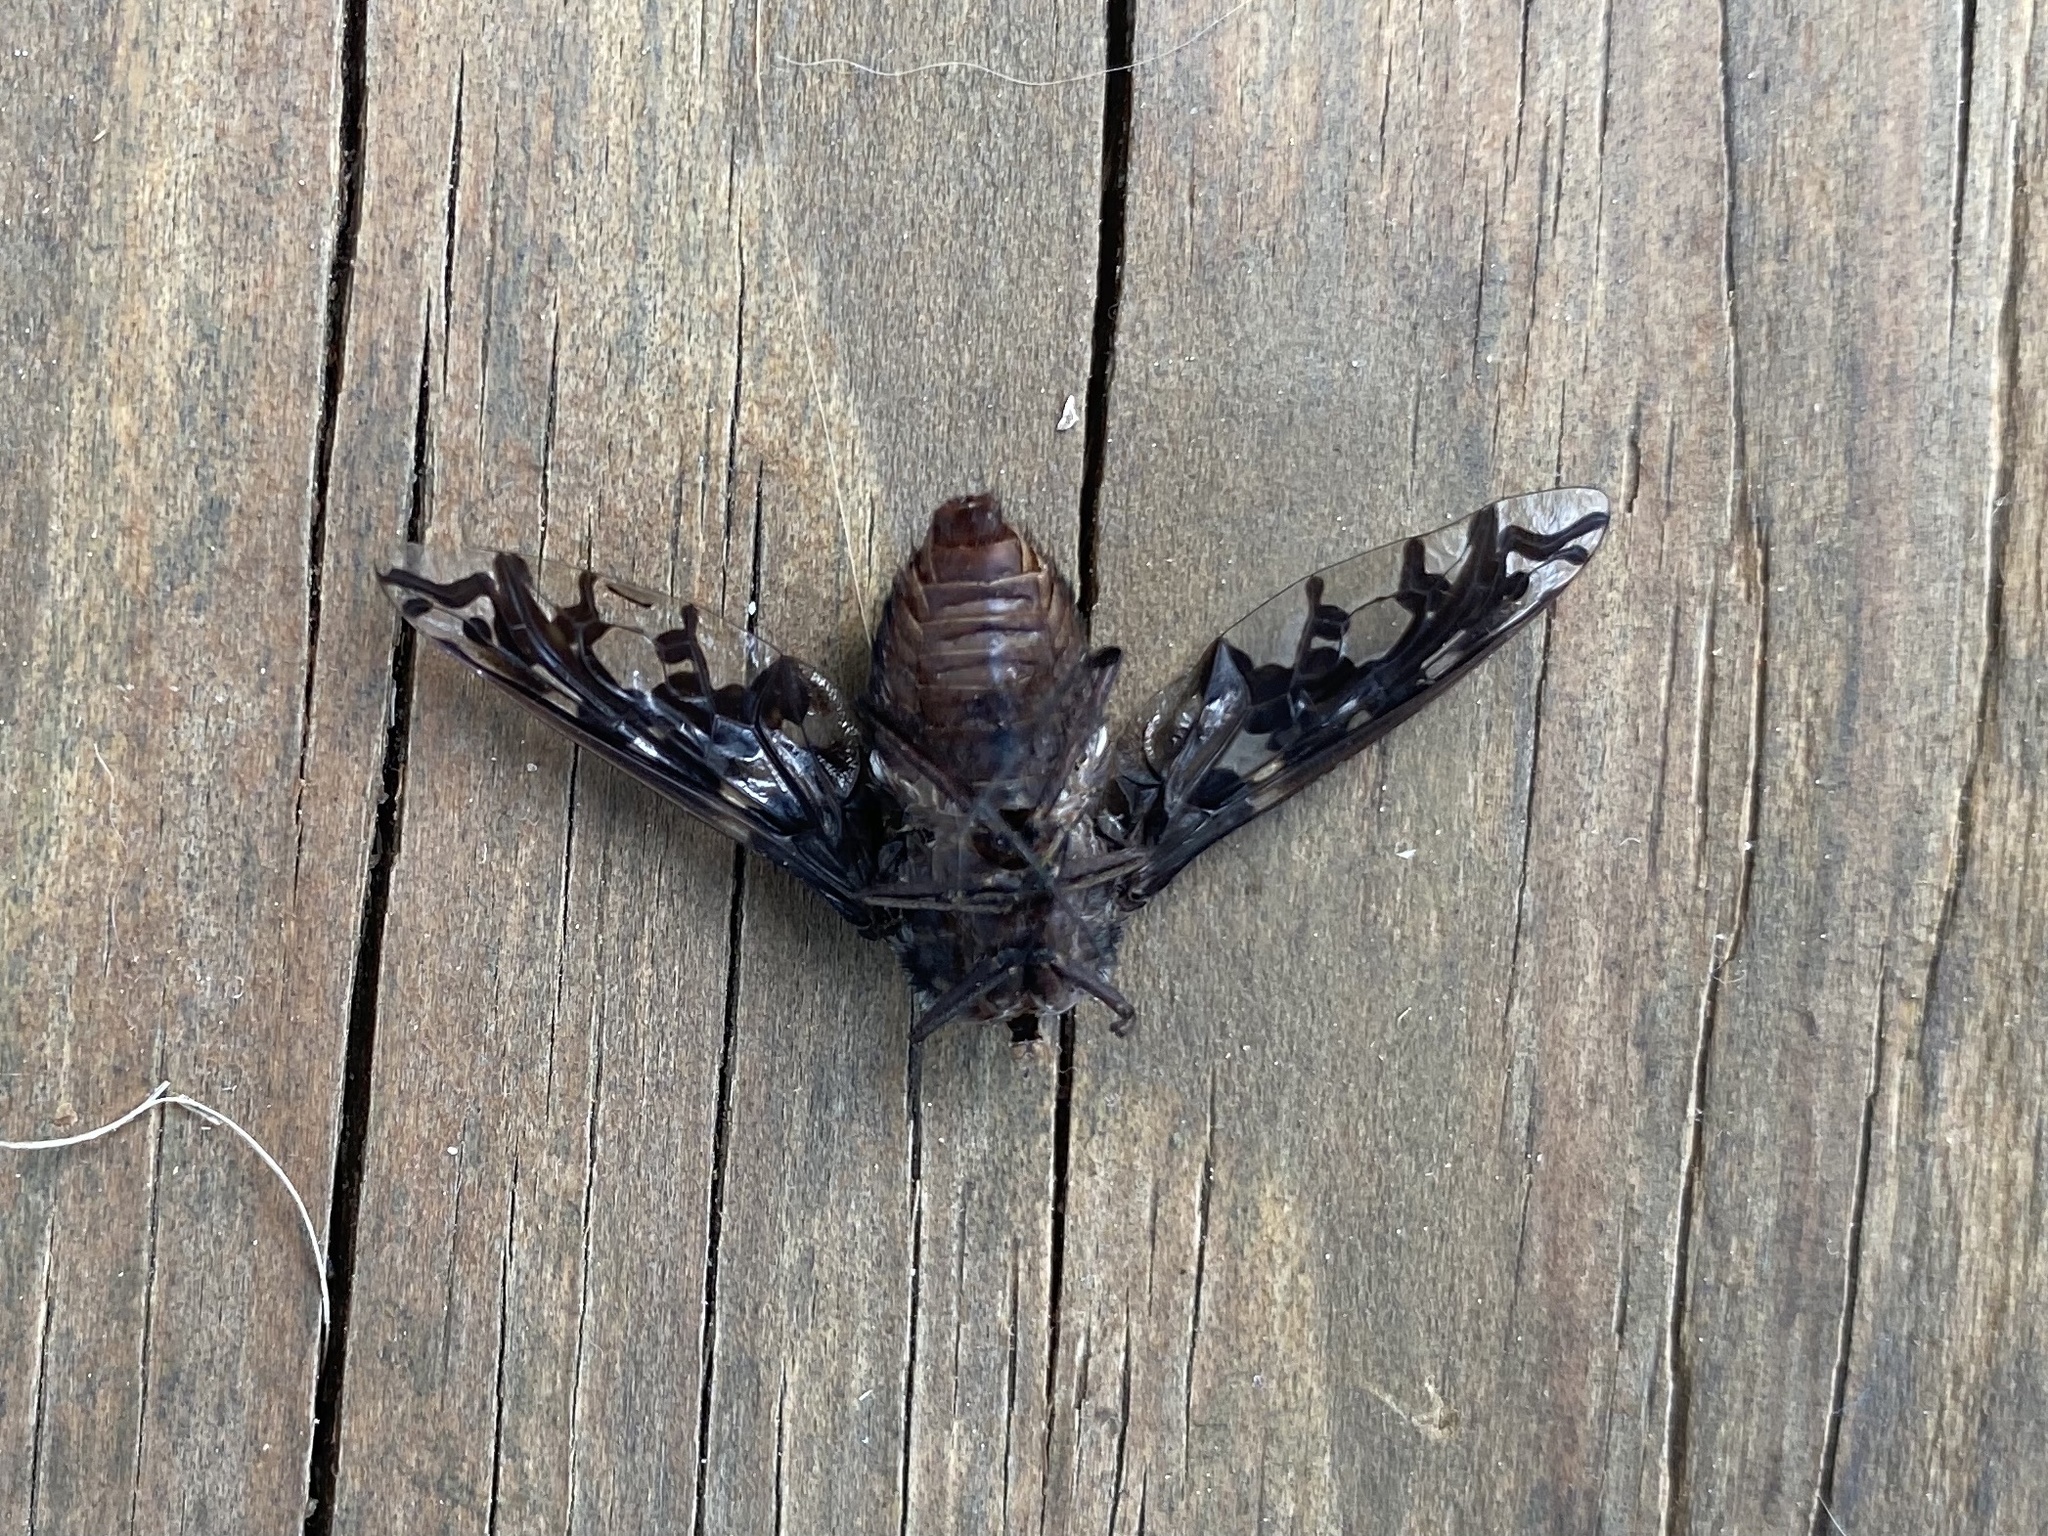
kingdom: Animalia
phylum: Arthropoda
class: Insecta
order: Diptera
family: Bombyliidae
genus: Xenox
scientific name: Xenox tigrinus
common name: Tiger bee fly
